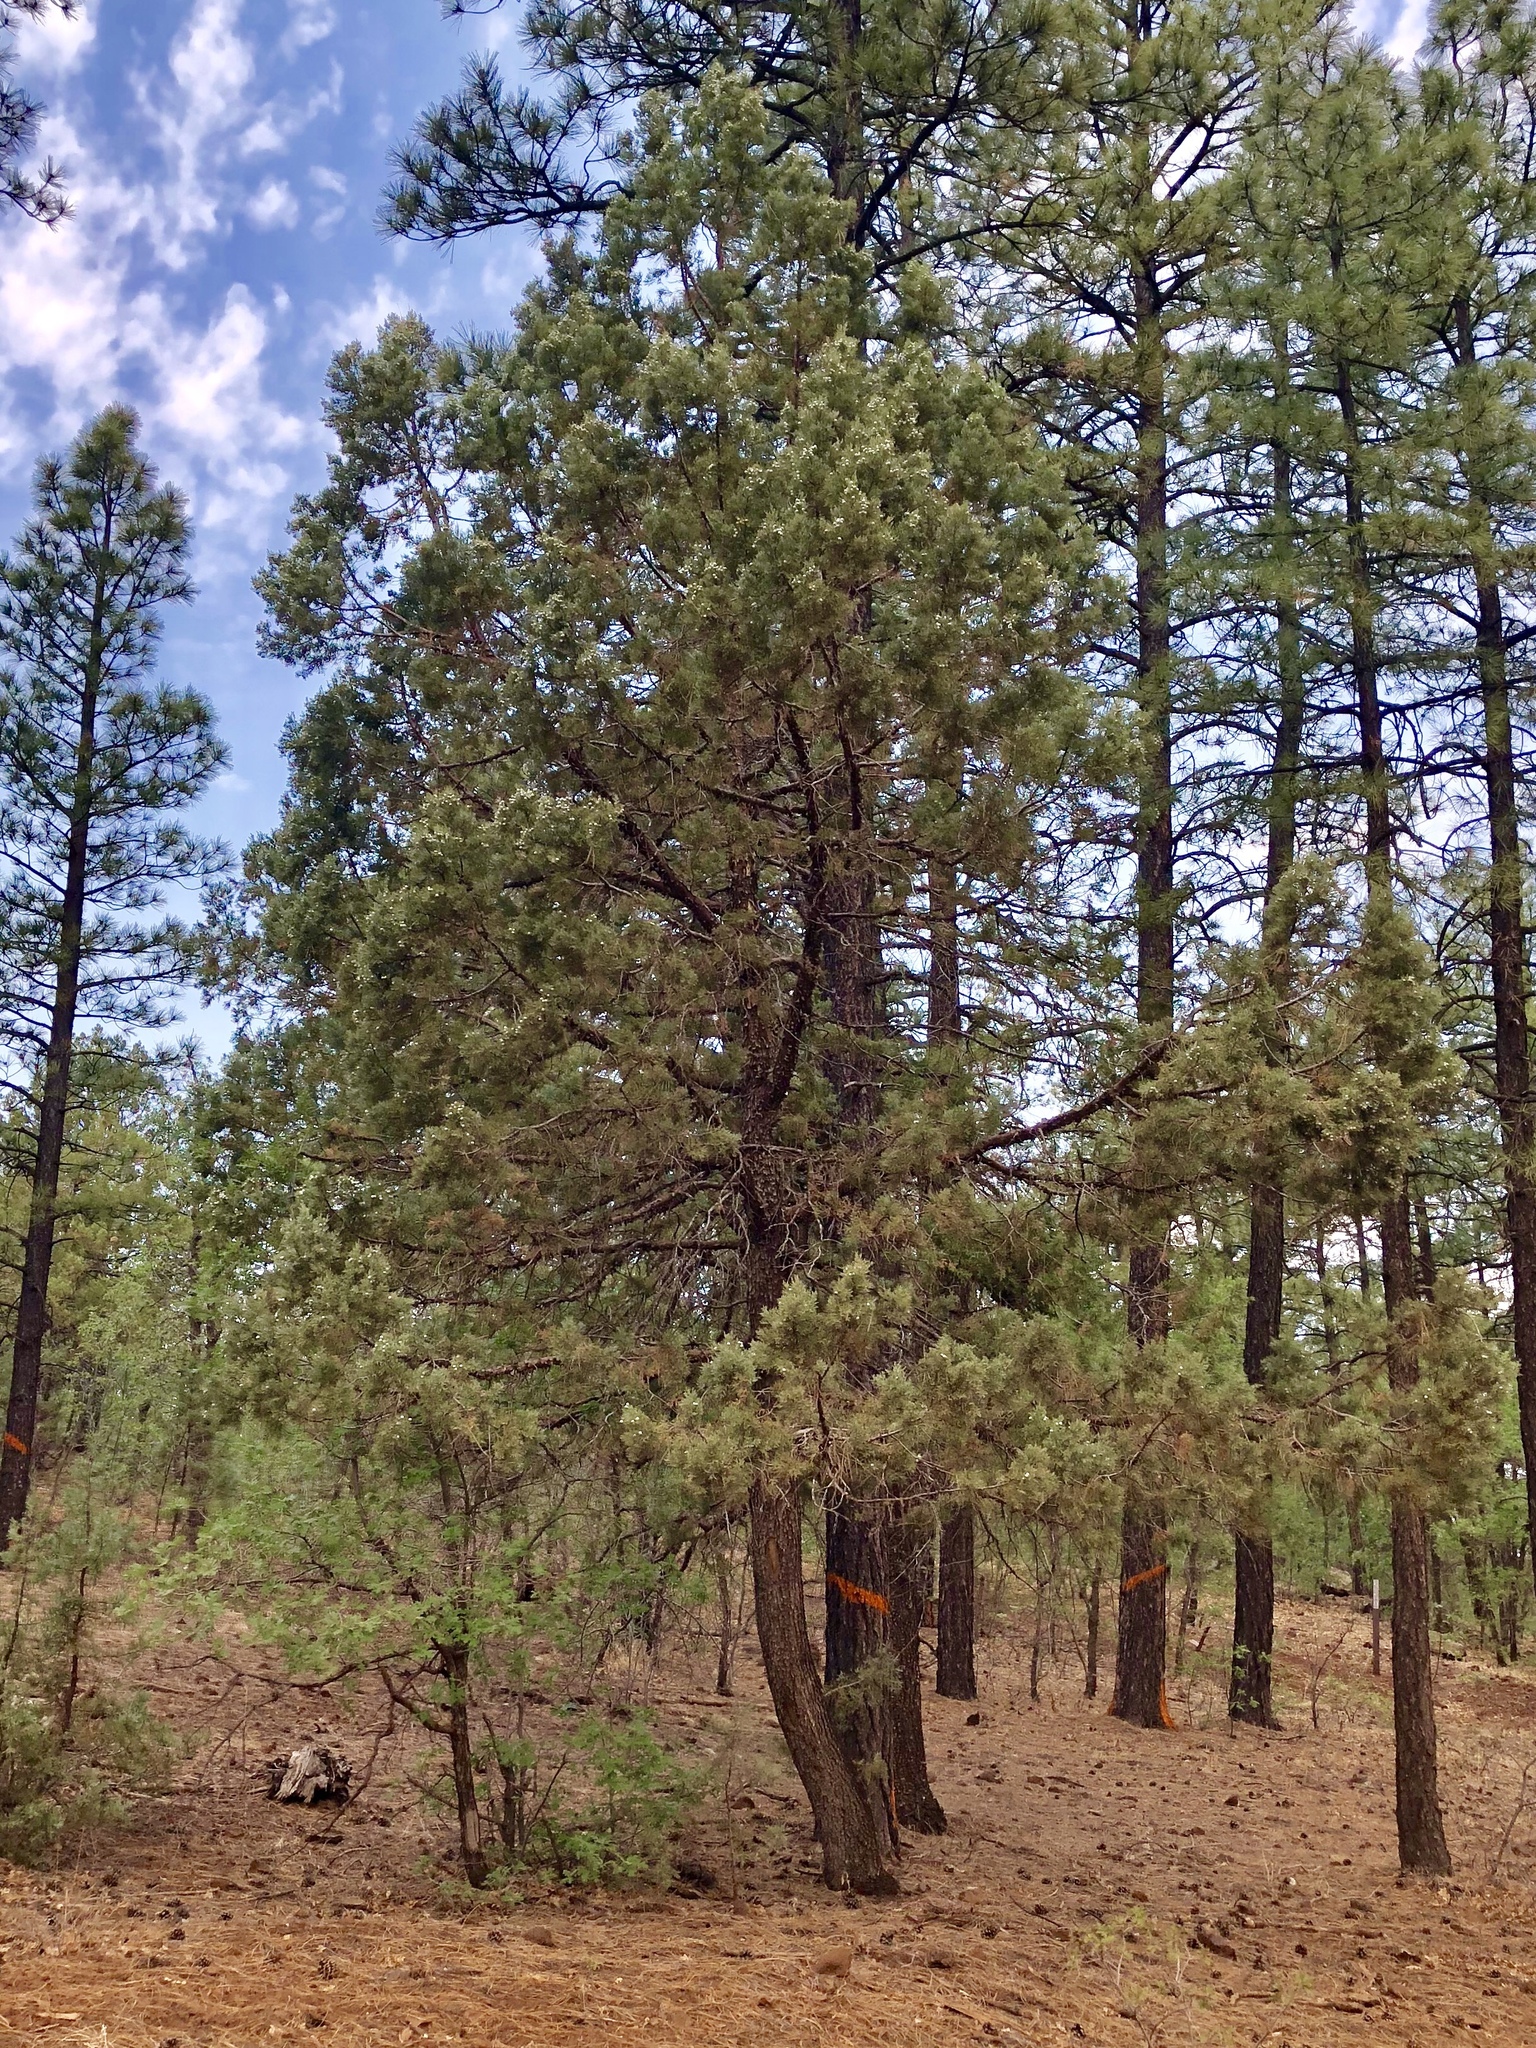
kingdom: Plantae
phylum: Tracheophyta
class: Pinopsida
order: Pinales
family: Cupressaceae
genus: Juniperus
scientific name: Juniperus deppeana
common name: Alligator juniper
